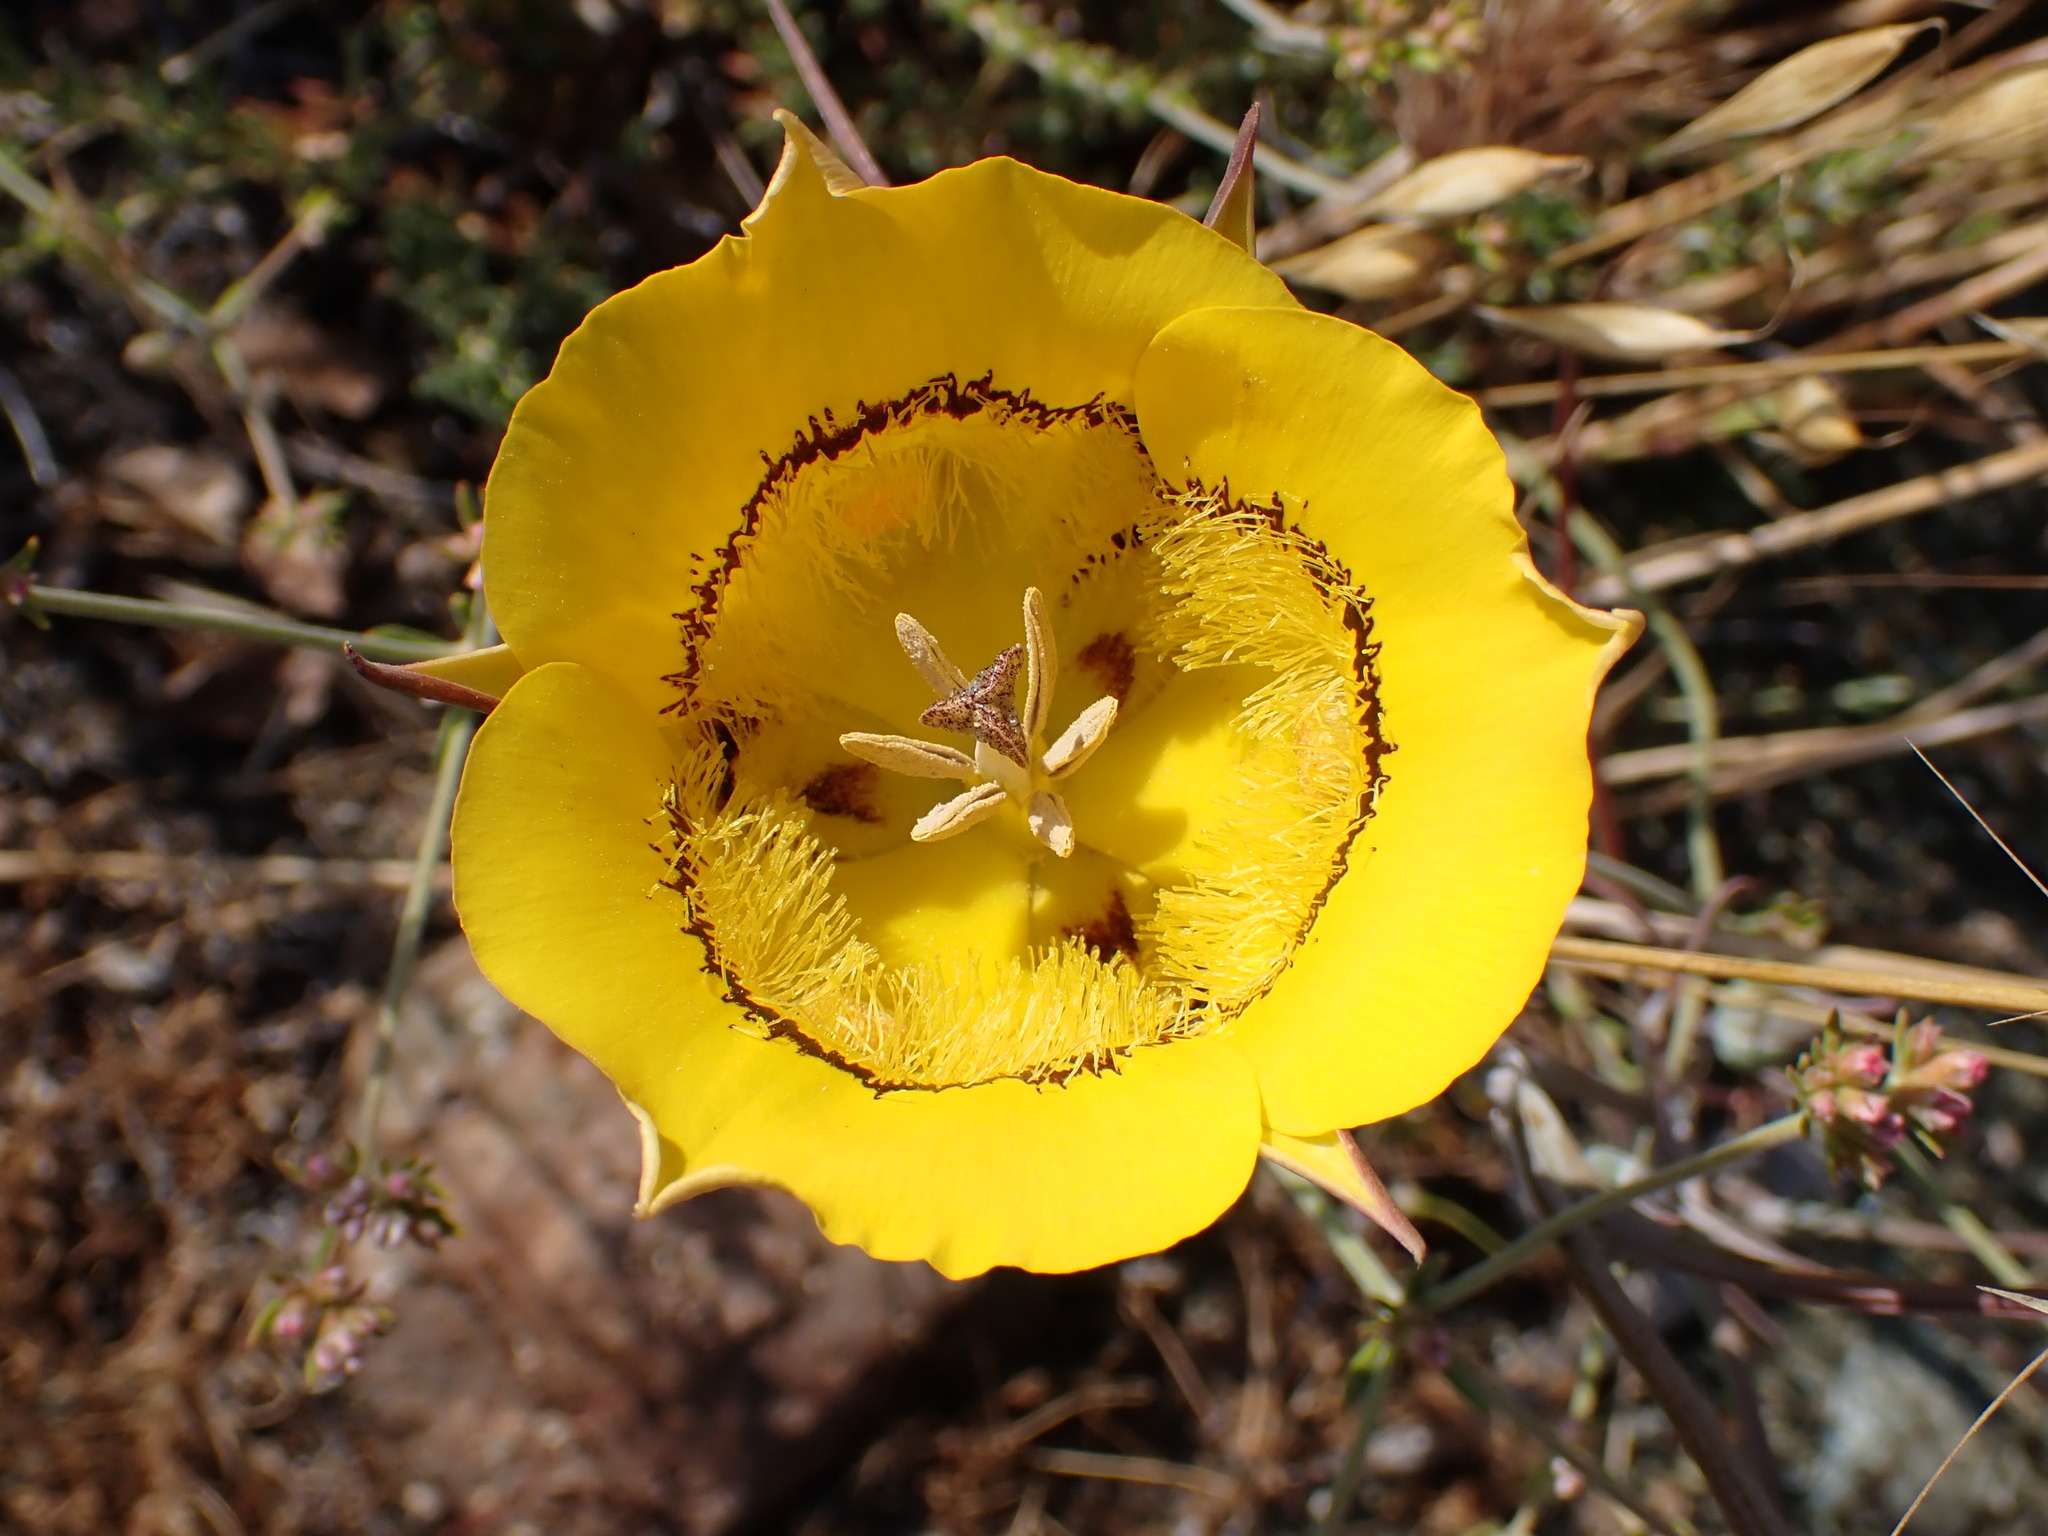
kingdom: Plantae
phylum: Tracheophyta
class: Liliopsida
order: Liliales
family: Liliaceae
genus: Calochortus
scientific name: Calochortus clavatus
